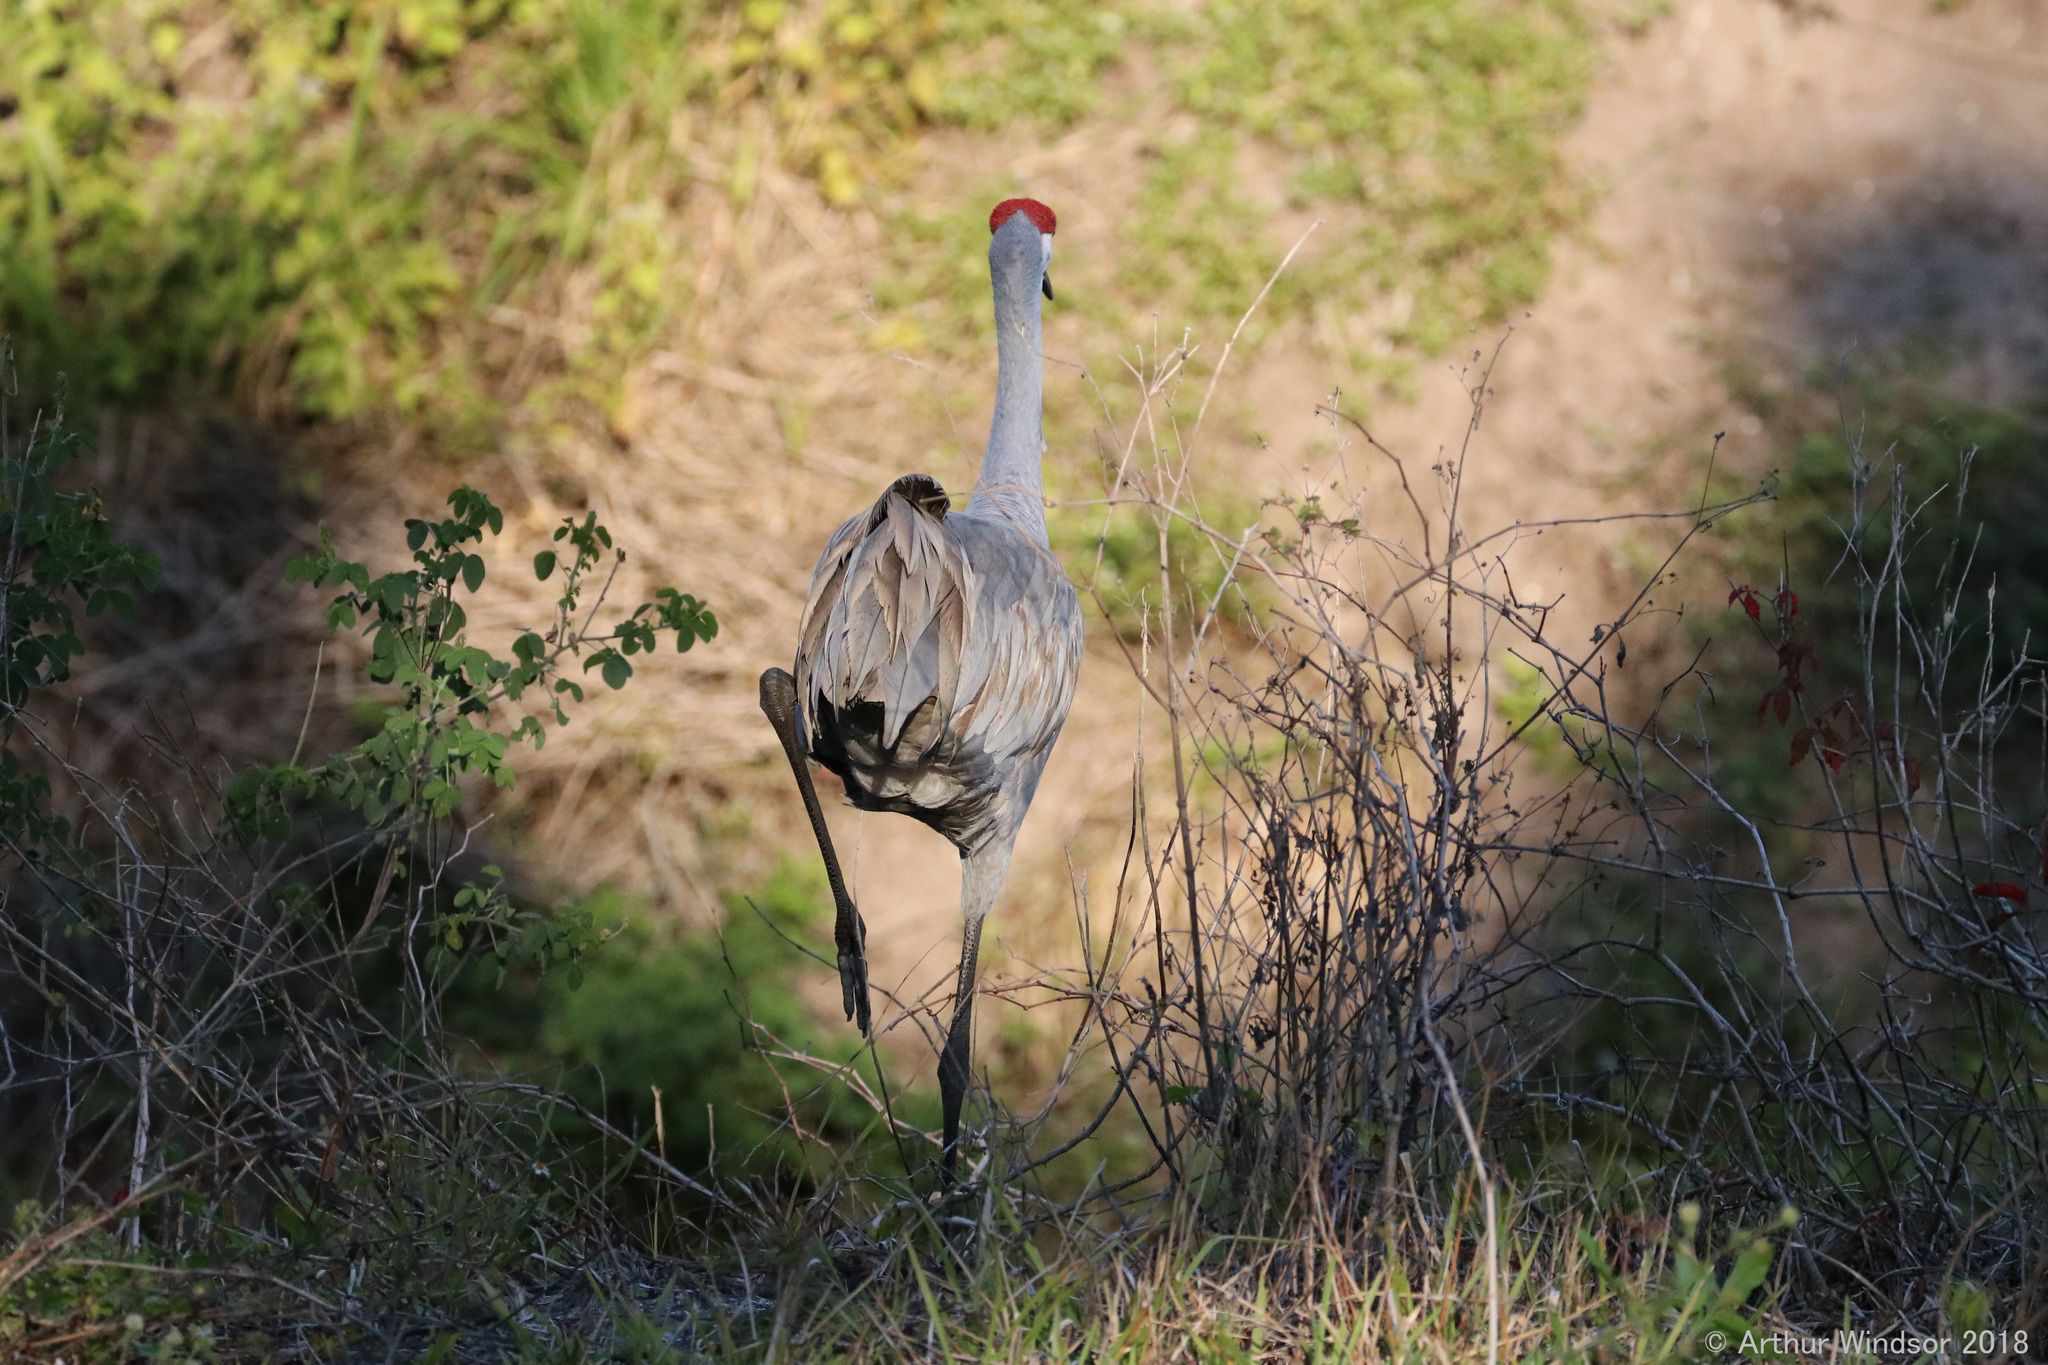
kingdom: Animalia
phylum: Chordata
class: Aves
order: Gruiformes
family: Gruidae
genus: Grus
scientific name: Grus canadensis
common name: Sandhill crane
